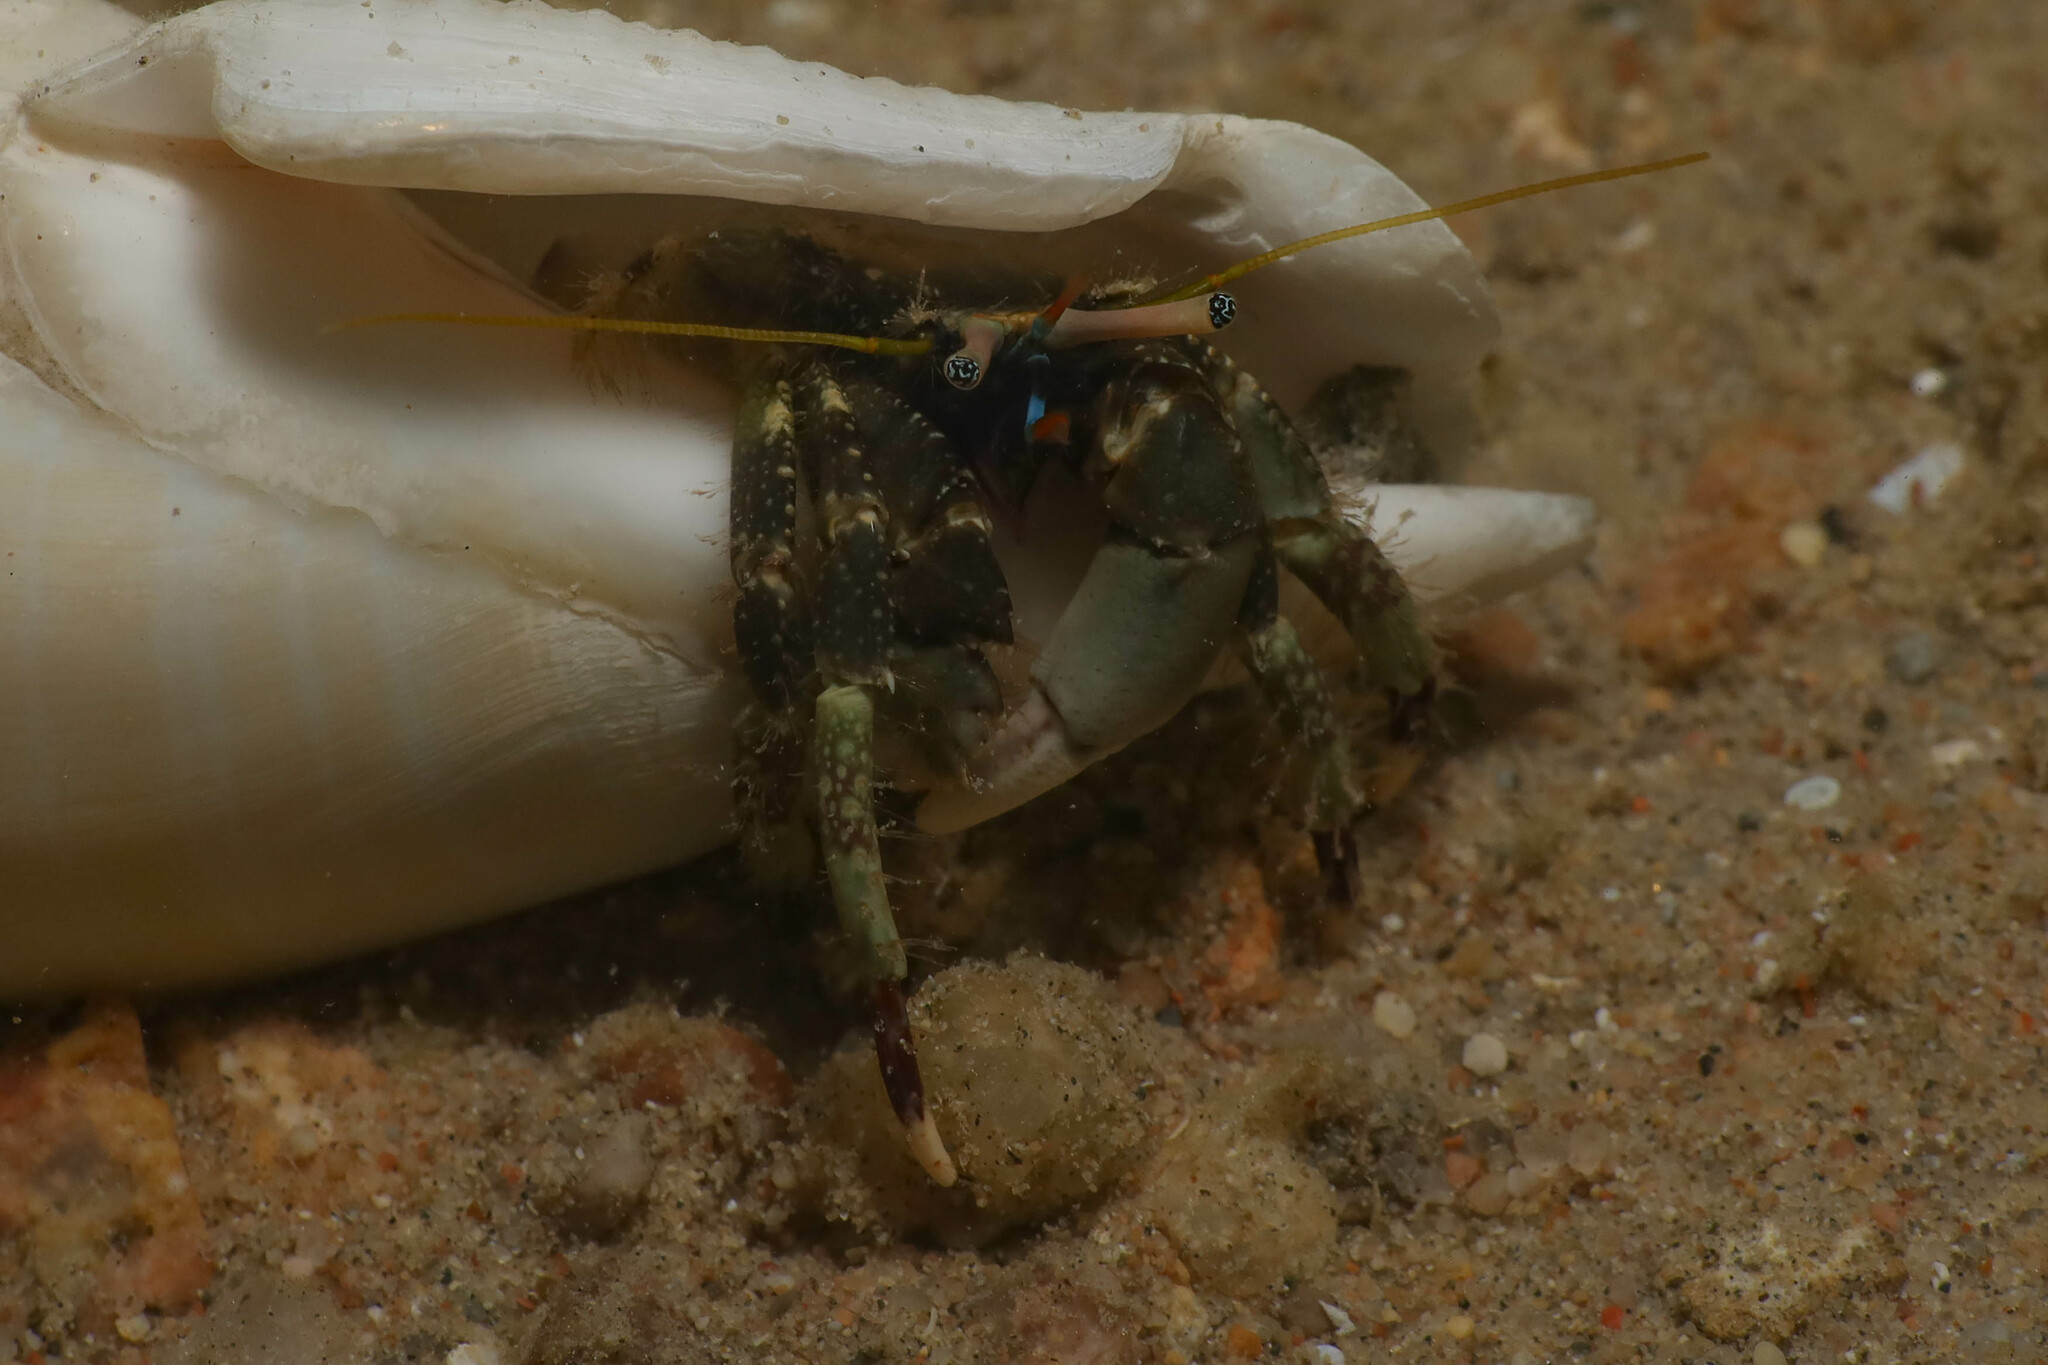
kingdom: Animalia
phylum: Arthropoda
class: Malacostraca
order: Decapoda
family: Diogenidae
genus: Calcinus
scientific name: Calcinus latens
